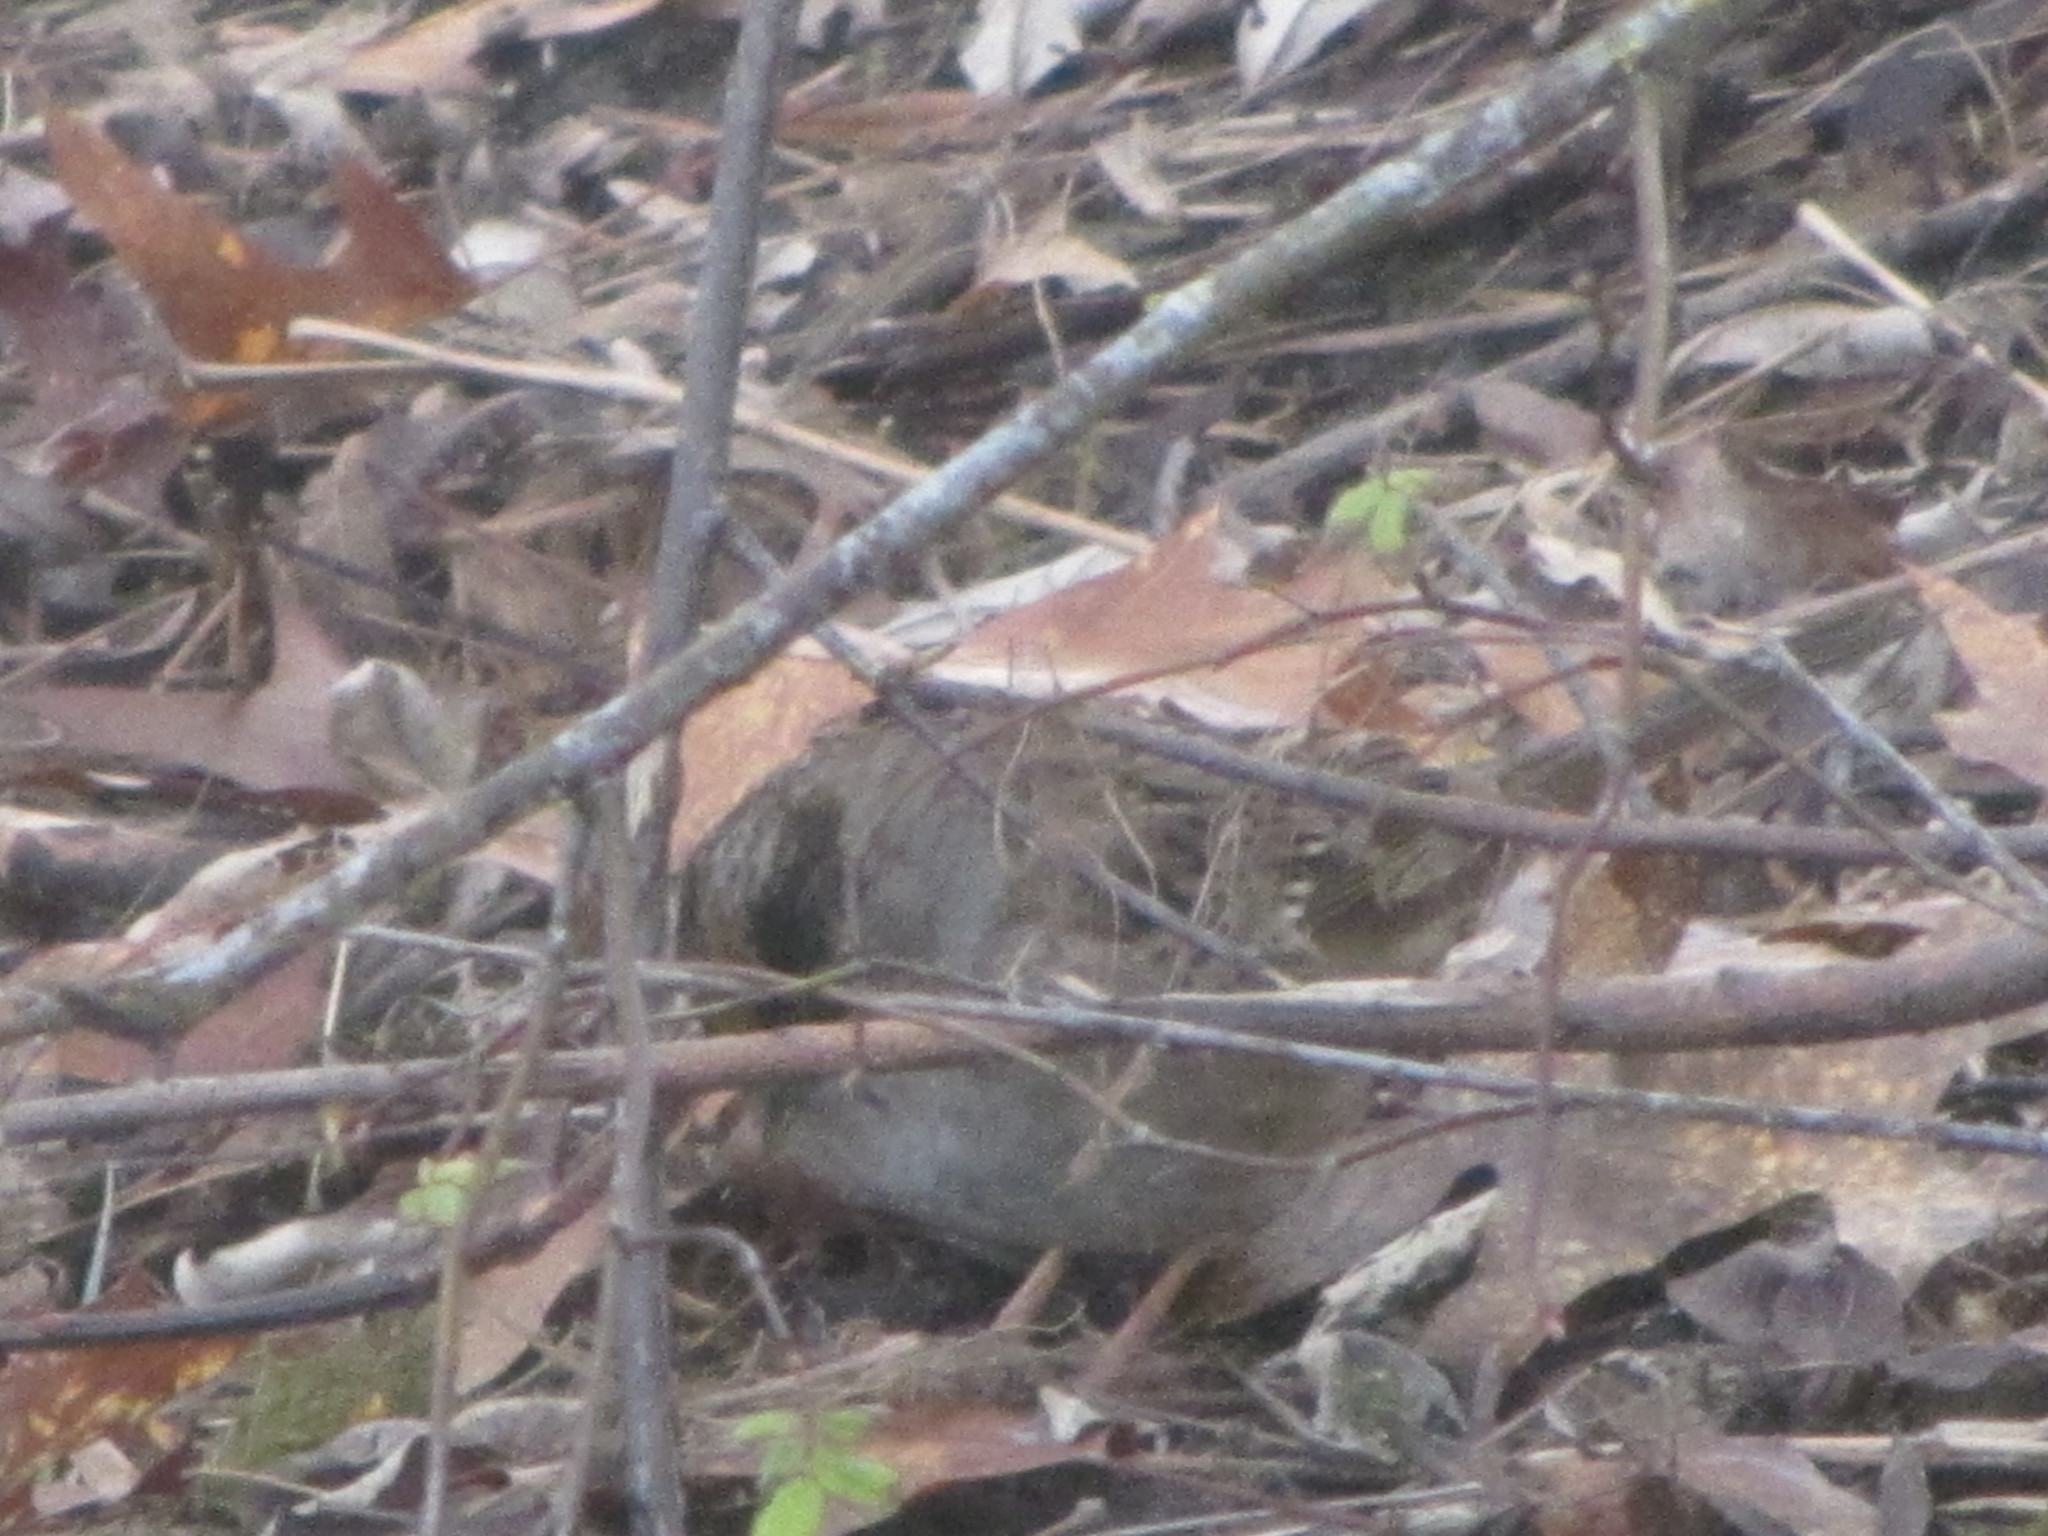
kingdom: Animalia
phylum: Chordata
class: Aves
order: Passeriformes
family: Passerellidae
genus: Zonotrichia
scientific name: Zonotrichia atricapilla
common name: Golden-crowned sparrow
